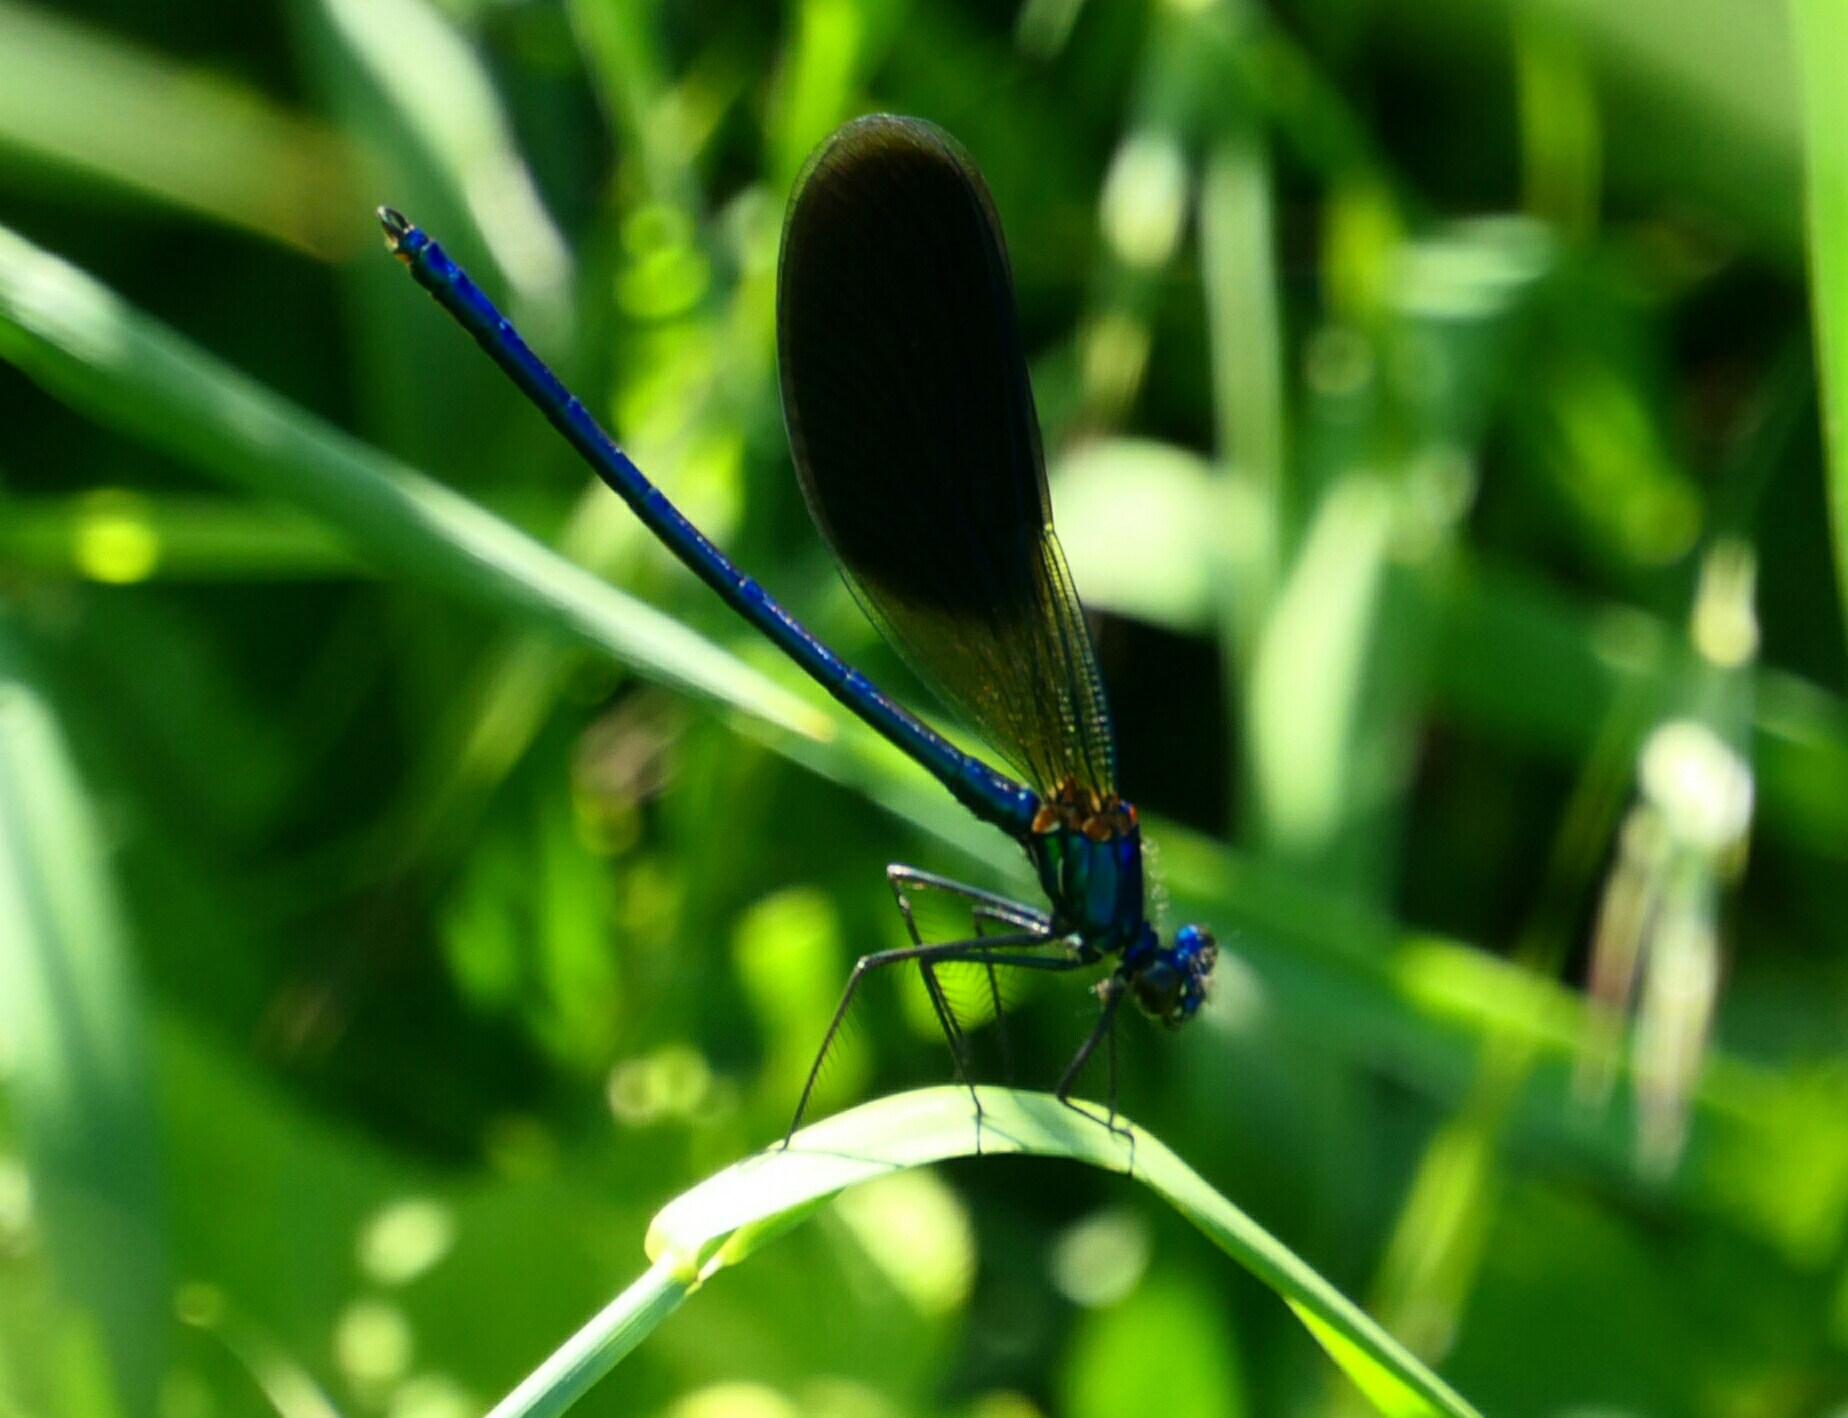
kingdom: Animalia
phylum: Arthropoda
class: Insecta
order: Odonata
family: Calopterygidae
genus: Calopteryx
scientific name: Calopteryx splendens
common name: Banded demoiselle
